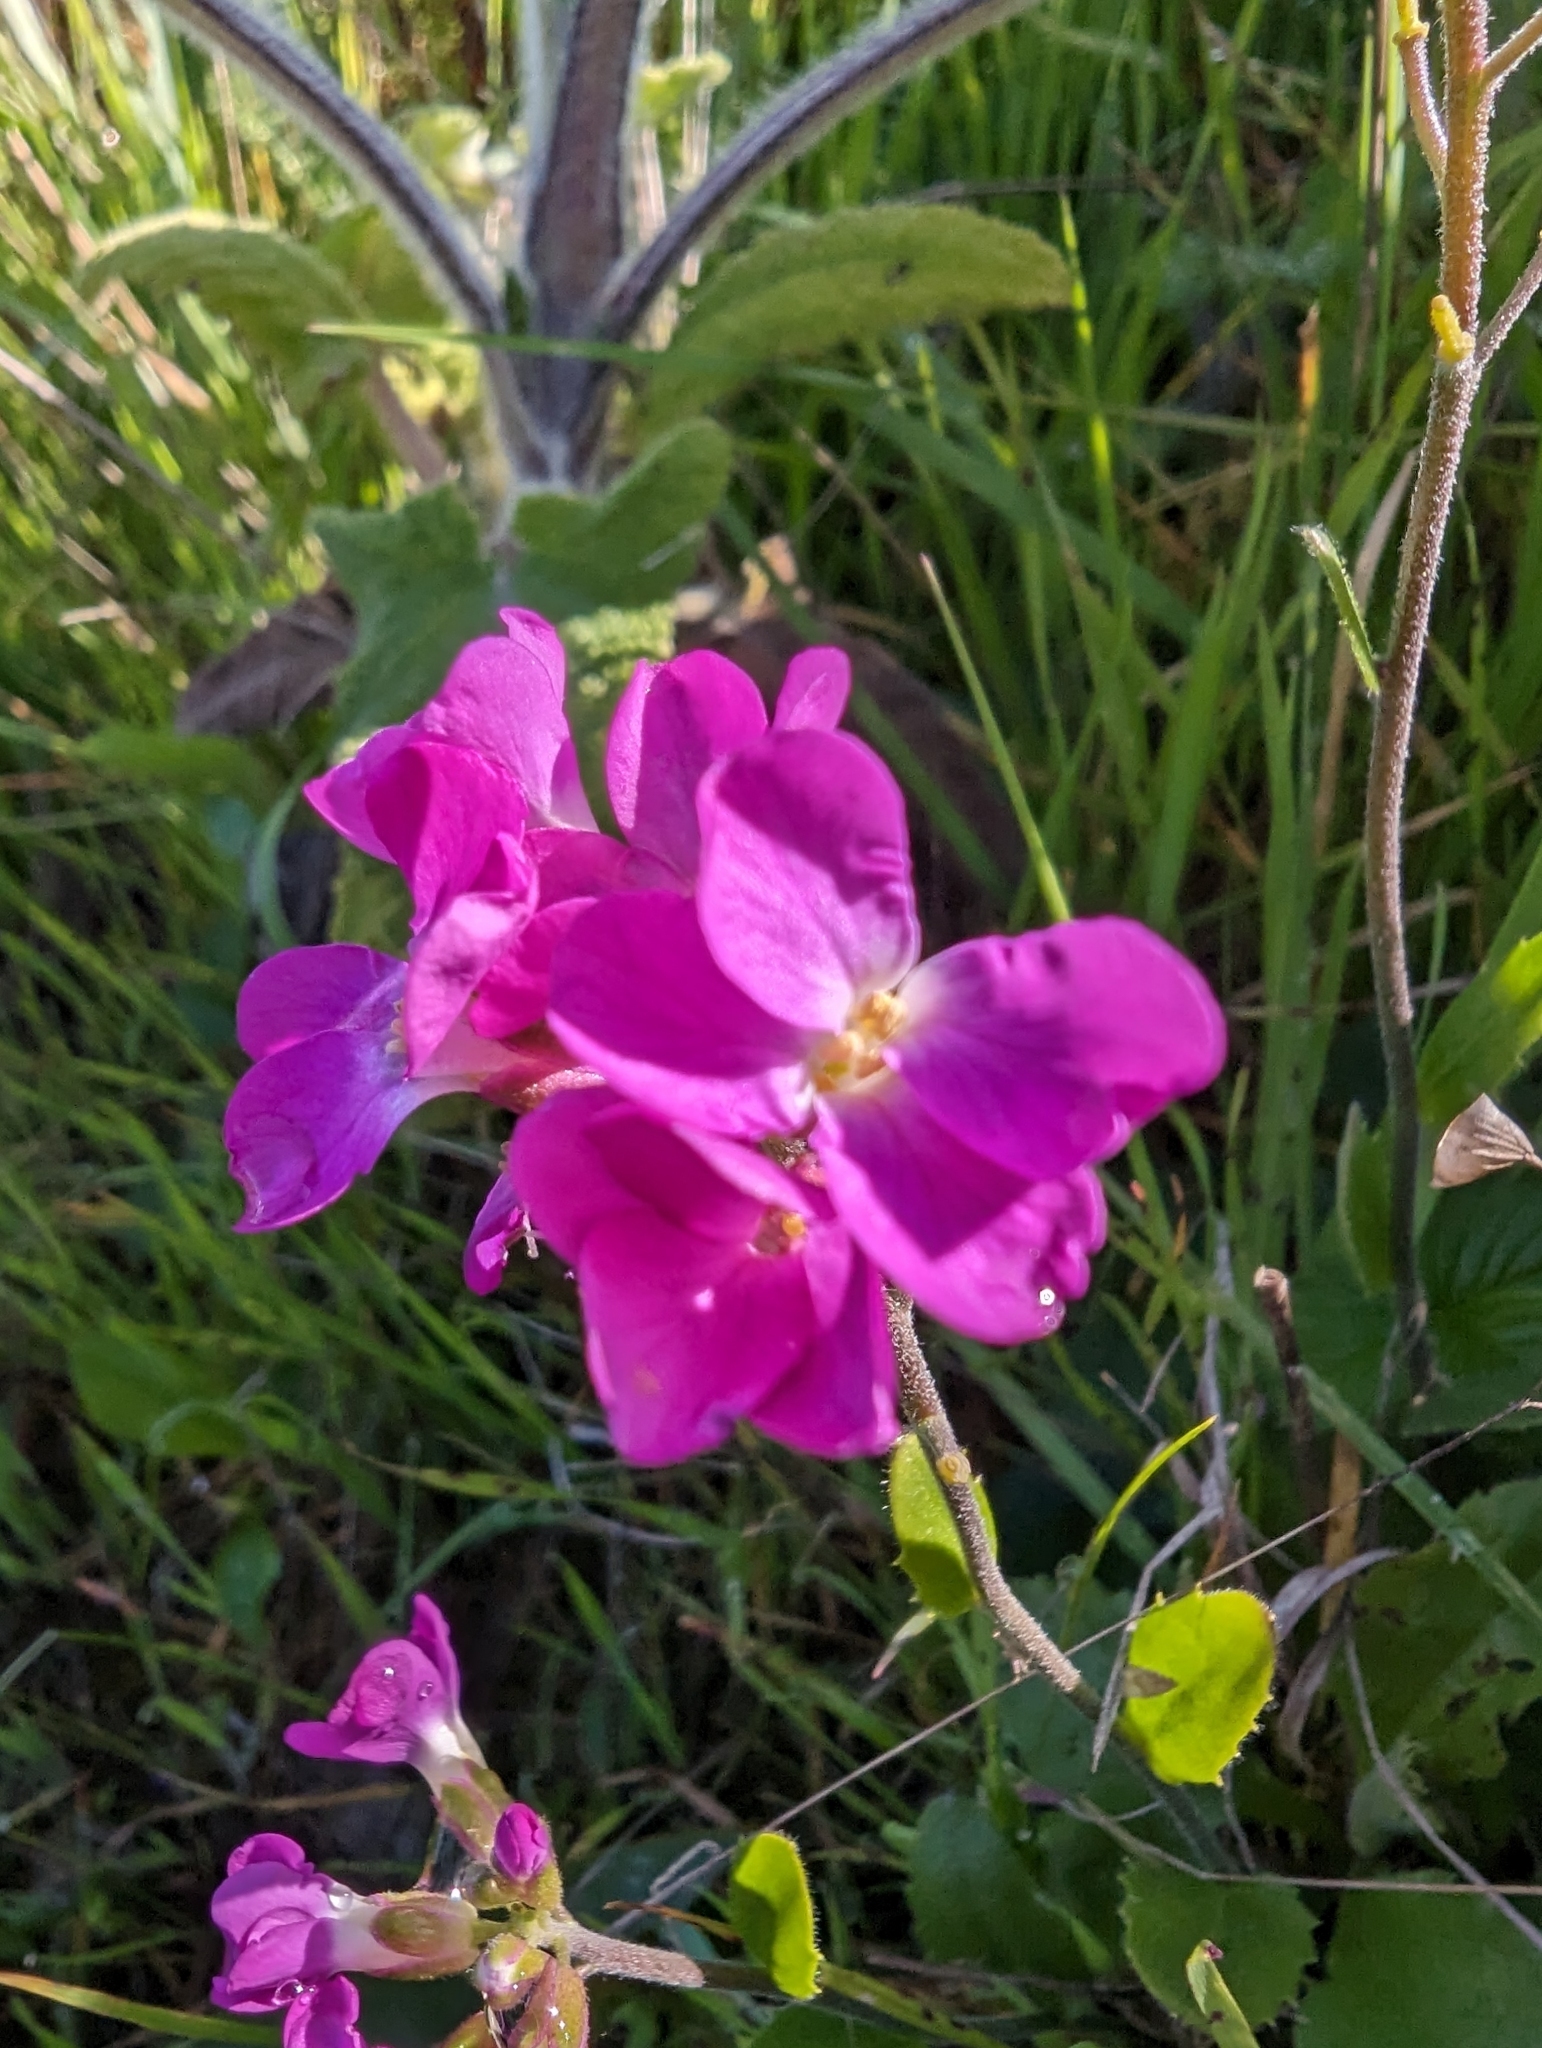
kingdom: Plantae
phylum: Tracheophyta
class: Magnoliopsida
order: Brassicales
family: Brassicaceae
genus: Arabis
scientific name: Arabis blepharophylla
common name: Rose rockcress
